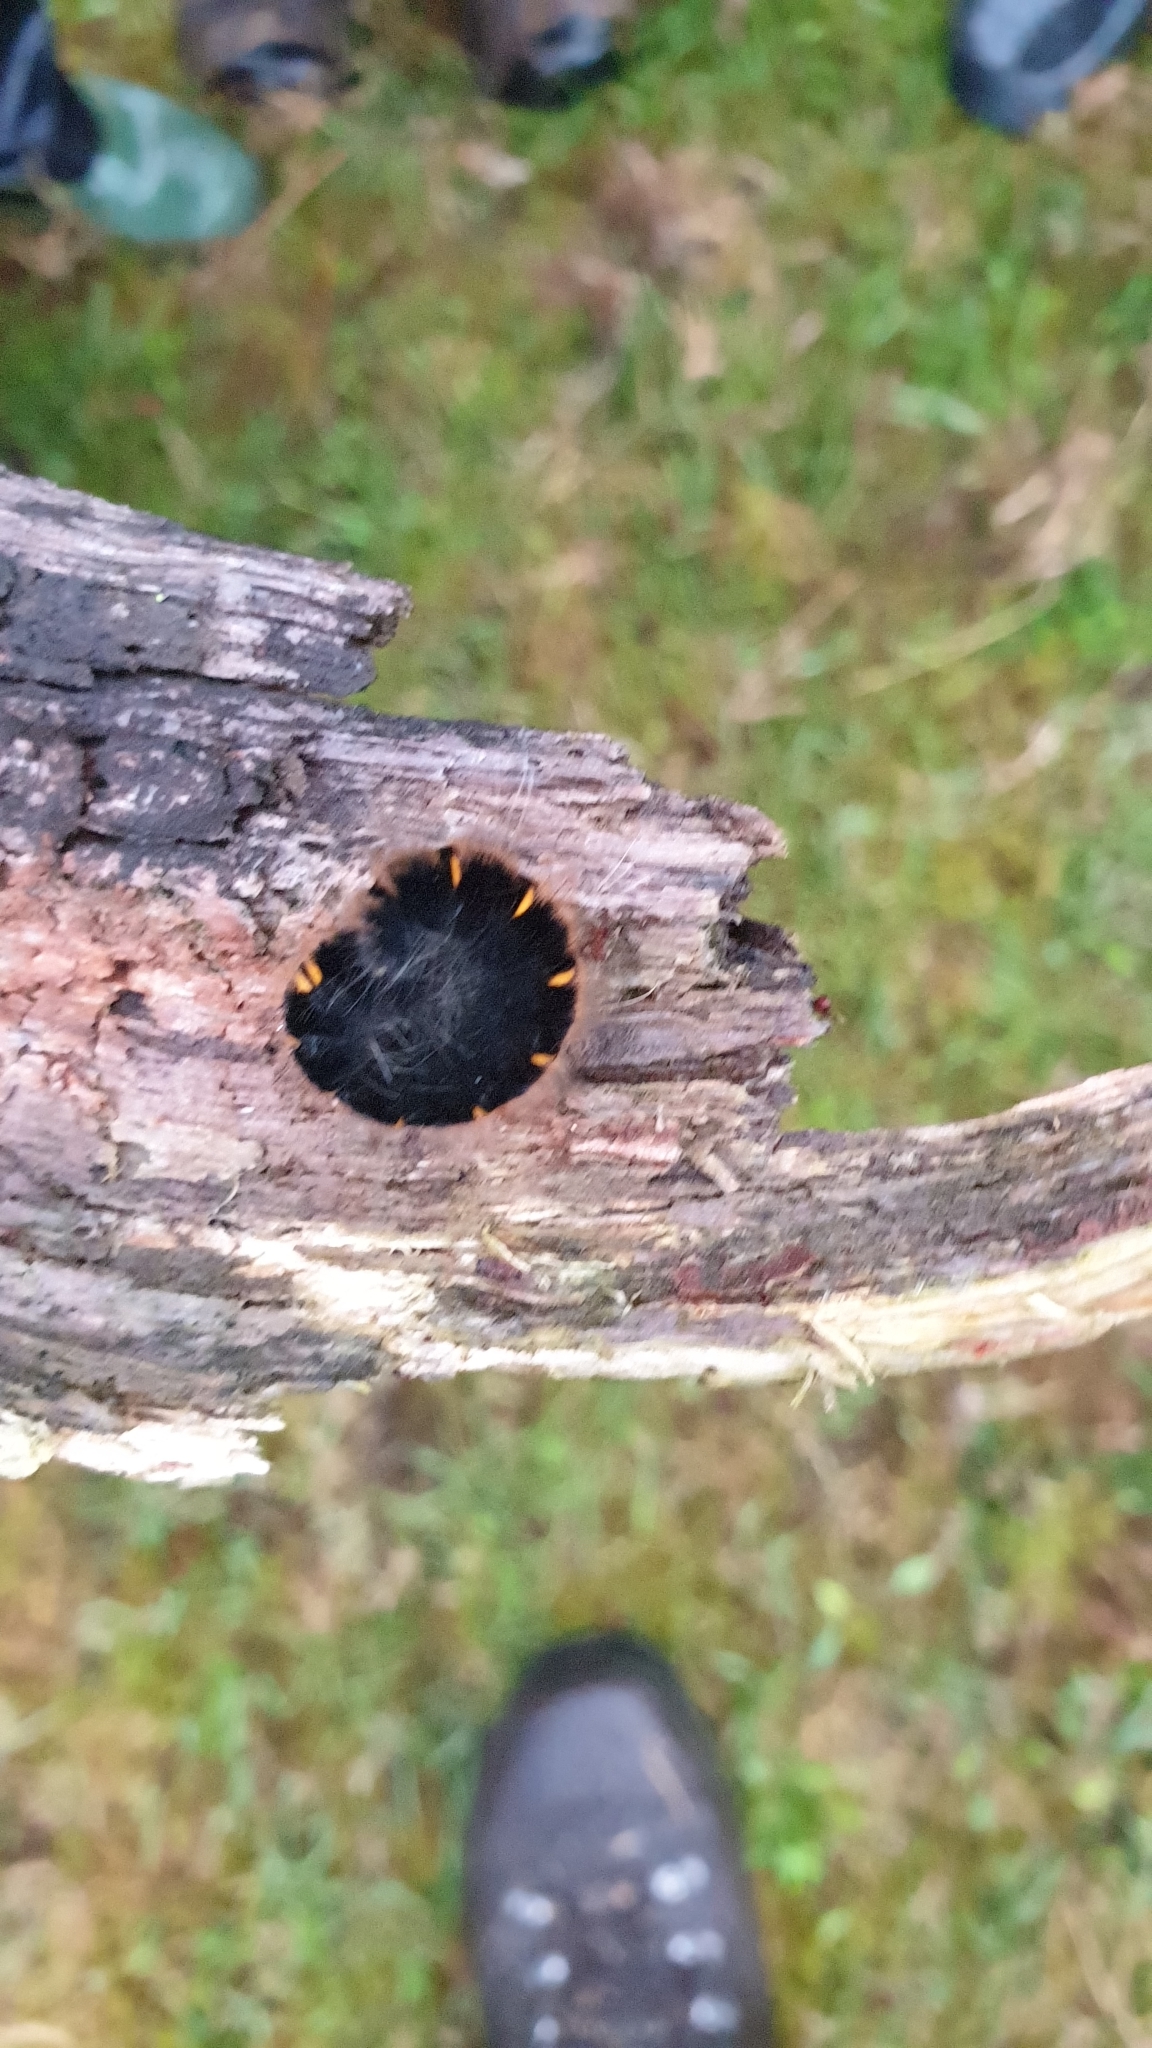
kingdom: Animalia
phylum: Arthropoda
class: Insecta
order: Lepidoptera
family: Lasiocampidae
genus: Macrothylacia
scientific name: Macrothylacia rubi
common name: Fox moth
